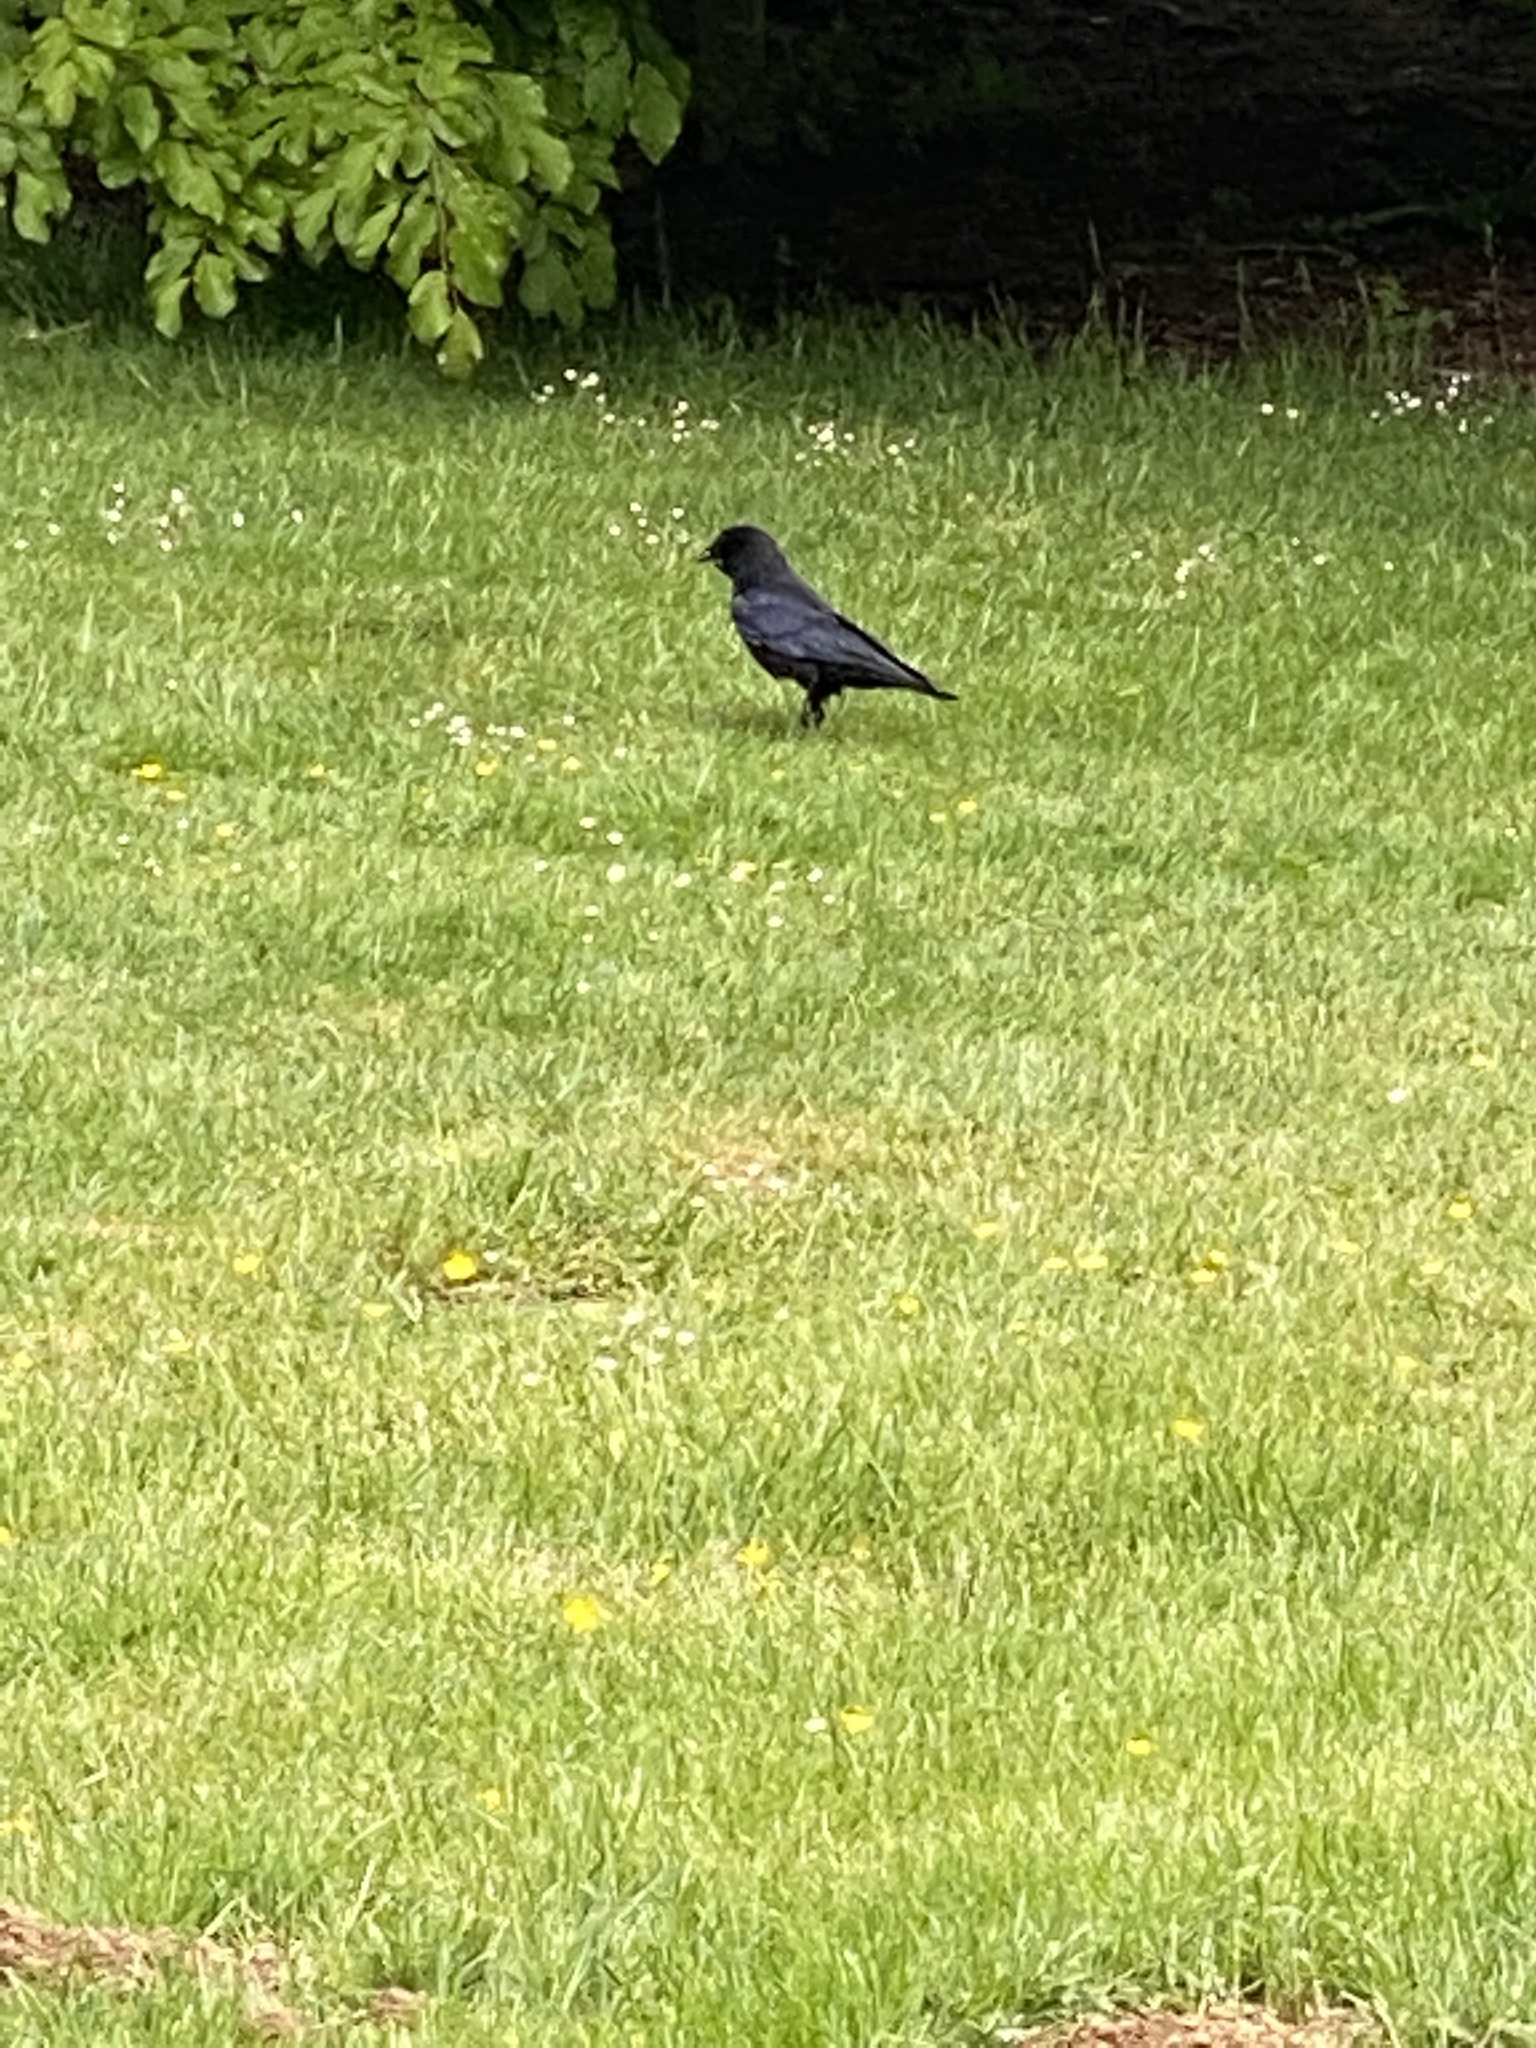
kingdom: Animalia
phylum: Chordata
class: Aves
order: Passeriformes
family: Corvidae
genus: Corvus
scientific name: Corvus brachyrhynchos
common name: American crow
